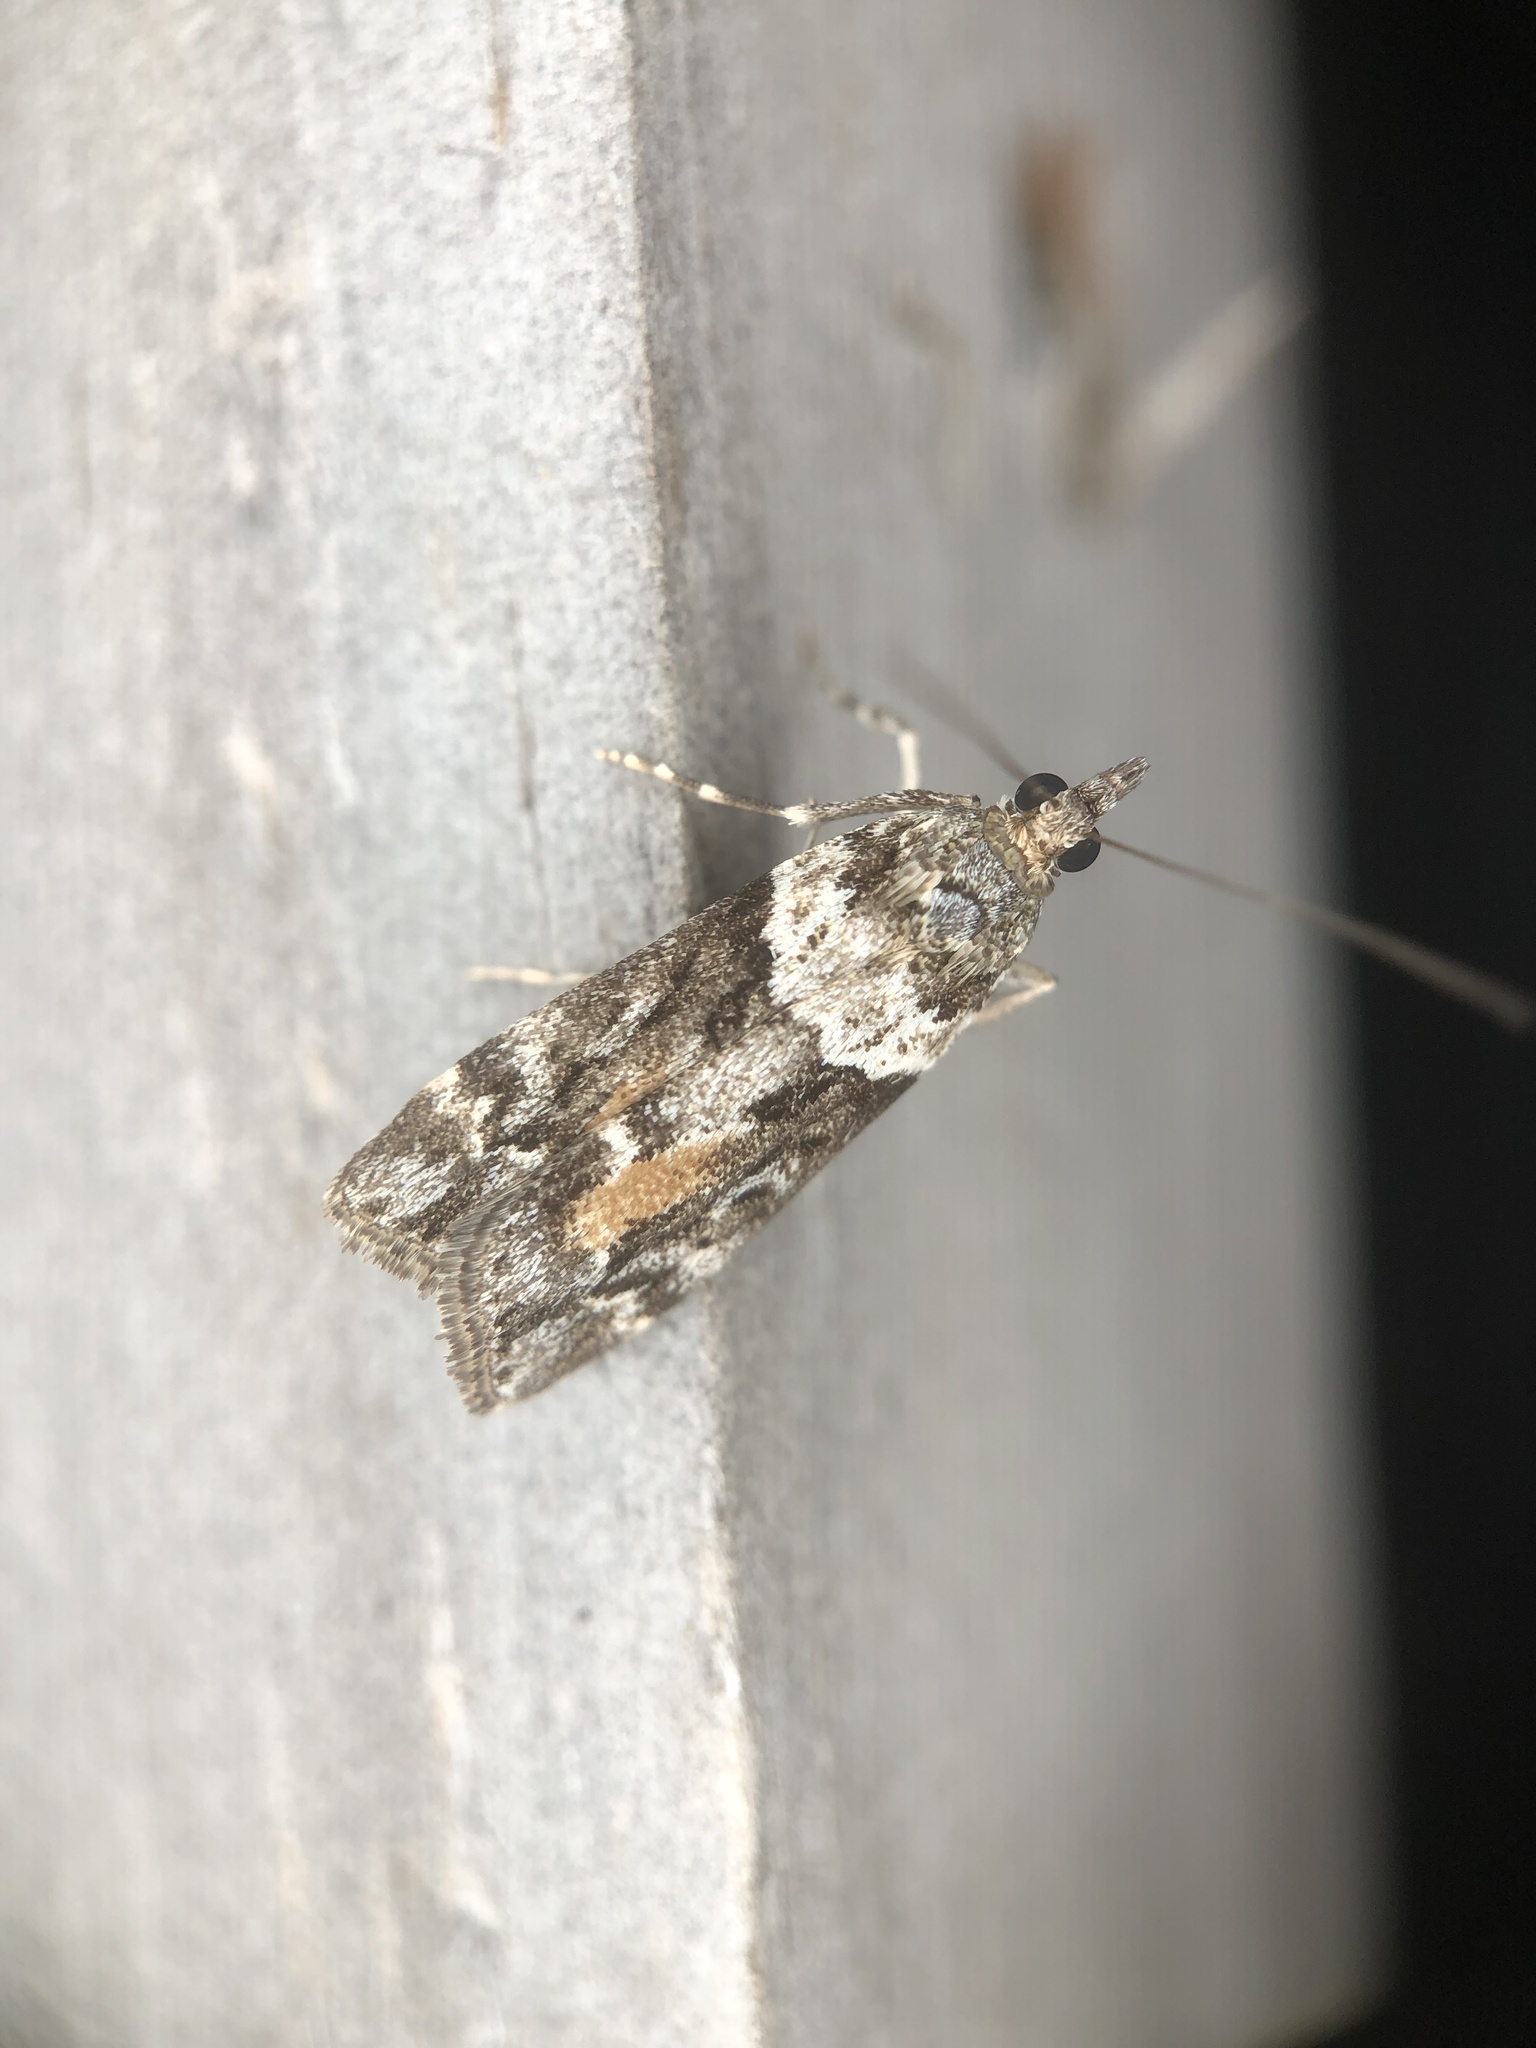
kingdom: Animalia
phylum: Arthropoda
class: Insecta
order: Lepidoptera
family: Crambidae
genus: Eudonia
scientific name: Eudonia submarginalis
